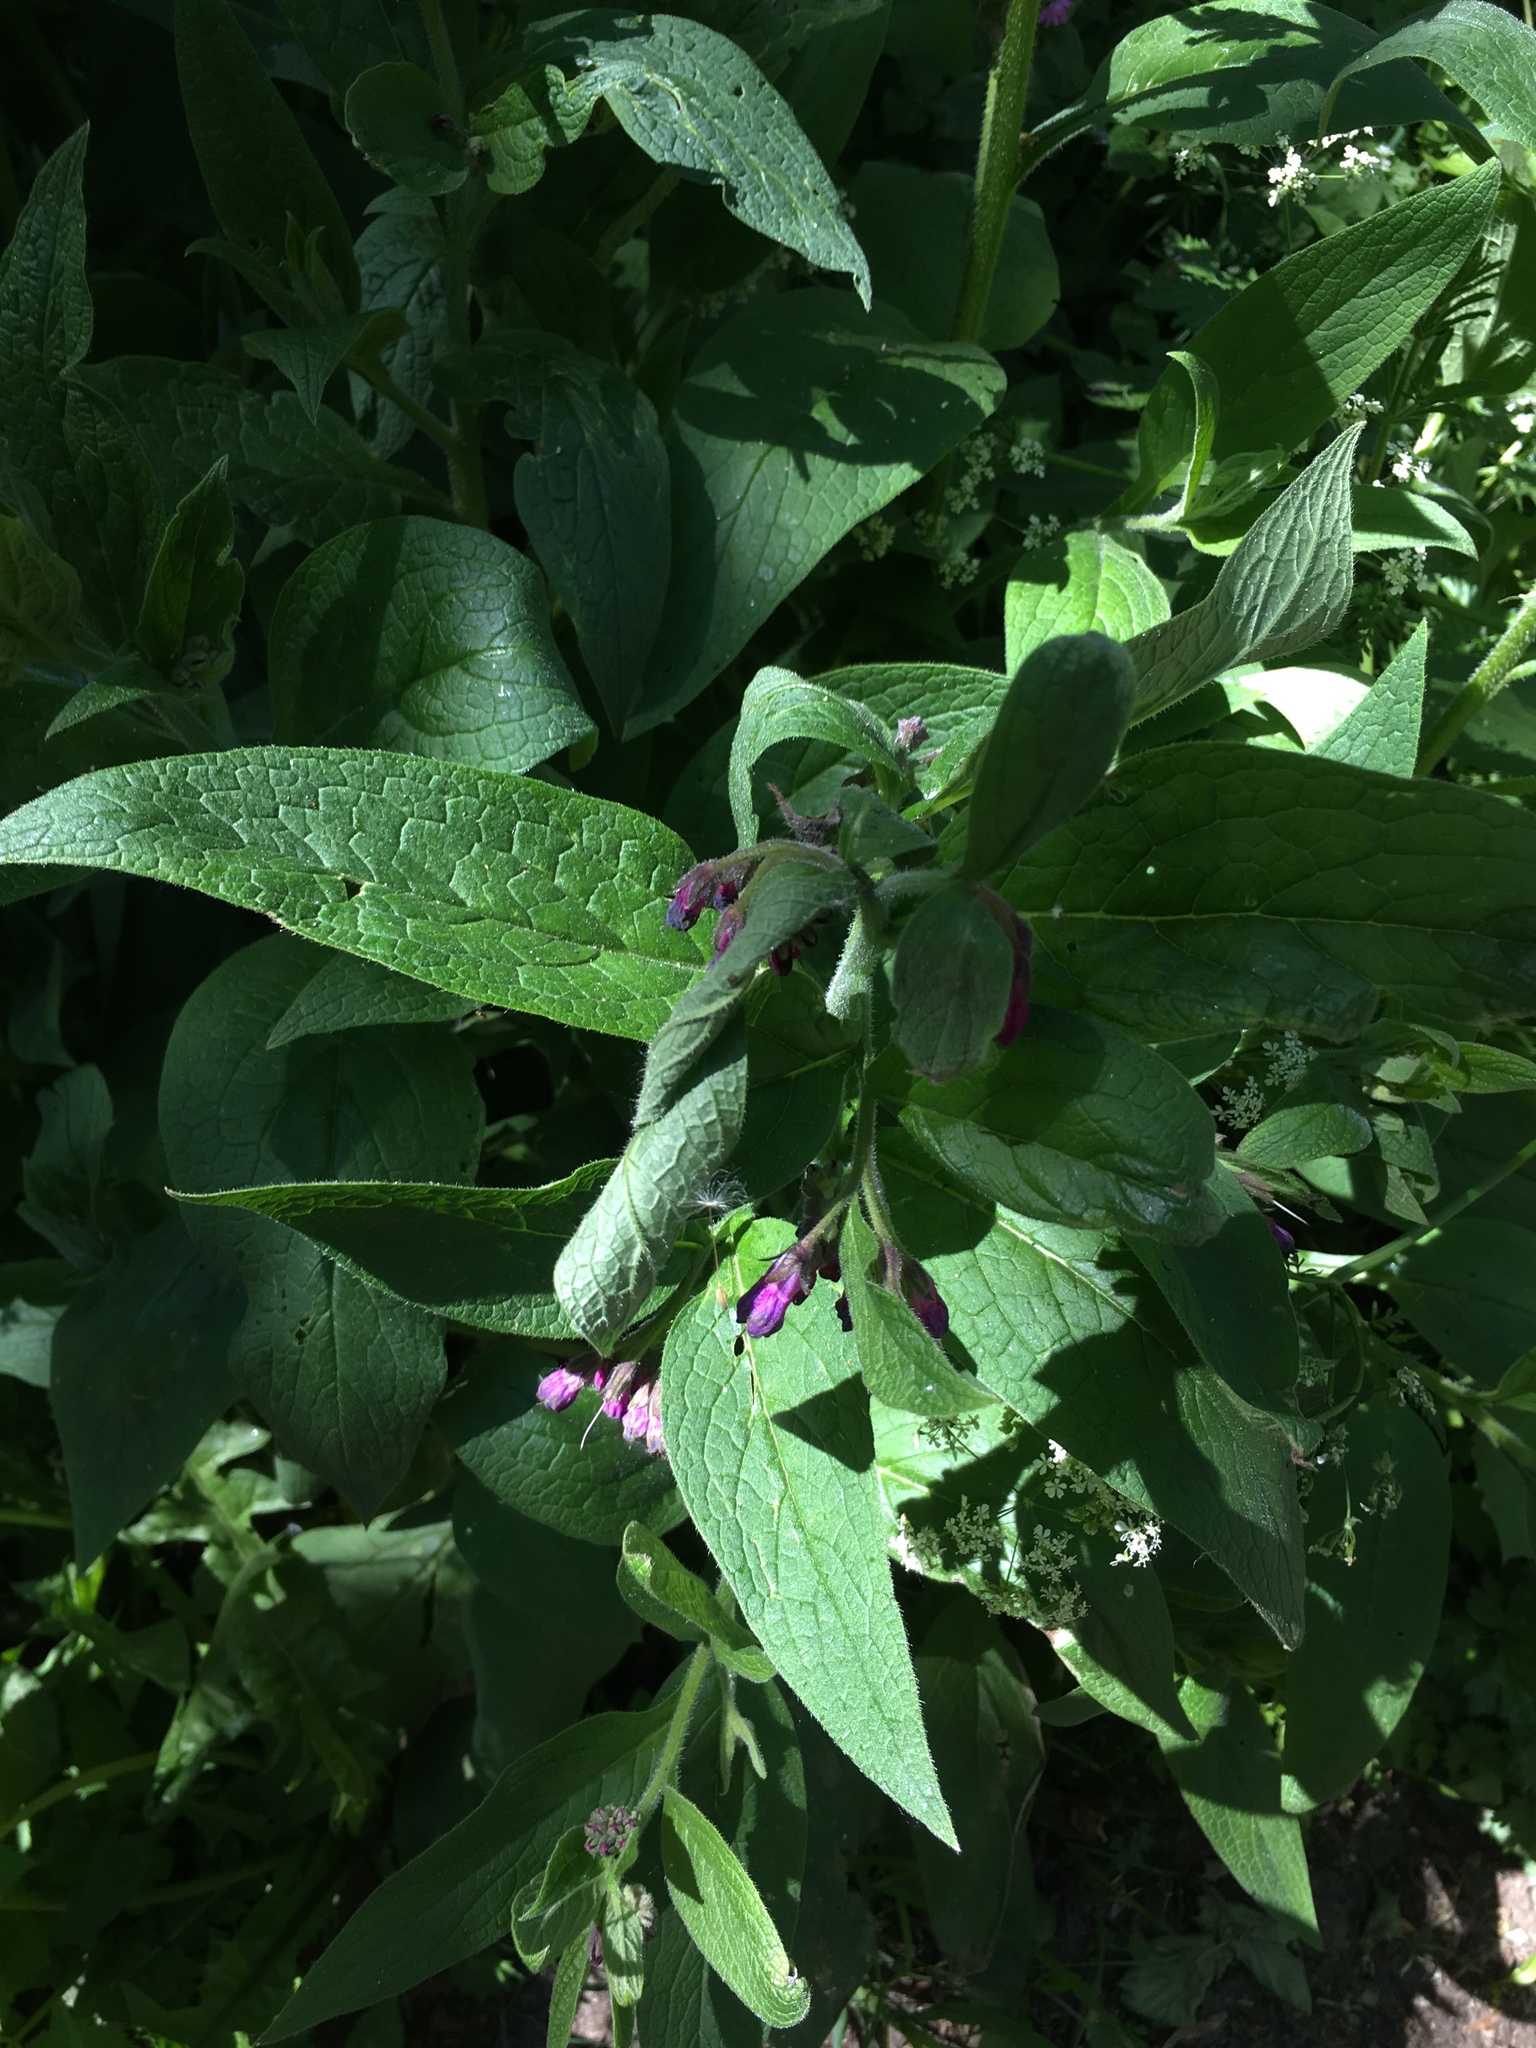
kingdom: Plantae
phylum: Tracheophyta
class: Magnoliopsida
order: Boraginales
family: Boraginaceae
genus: Symphytum
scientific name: Symphytum officinale
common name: Common comfrey
